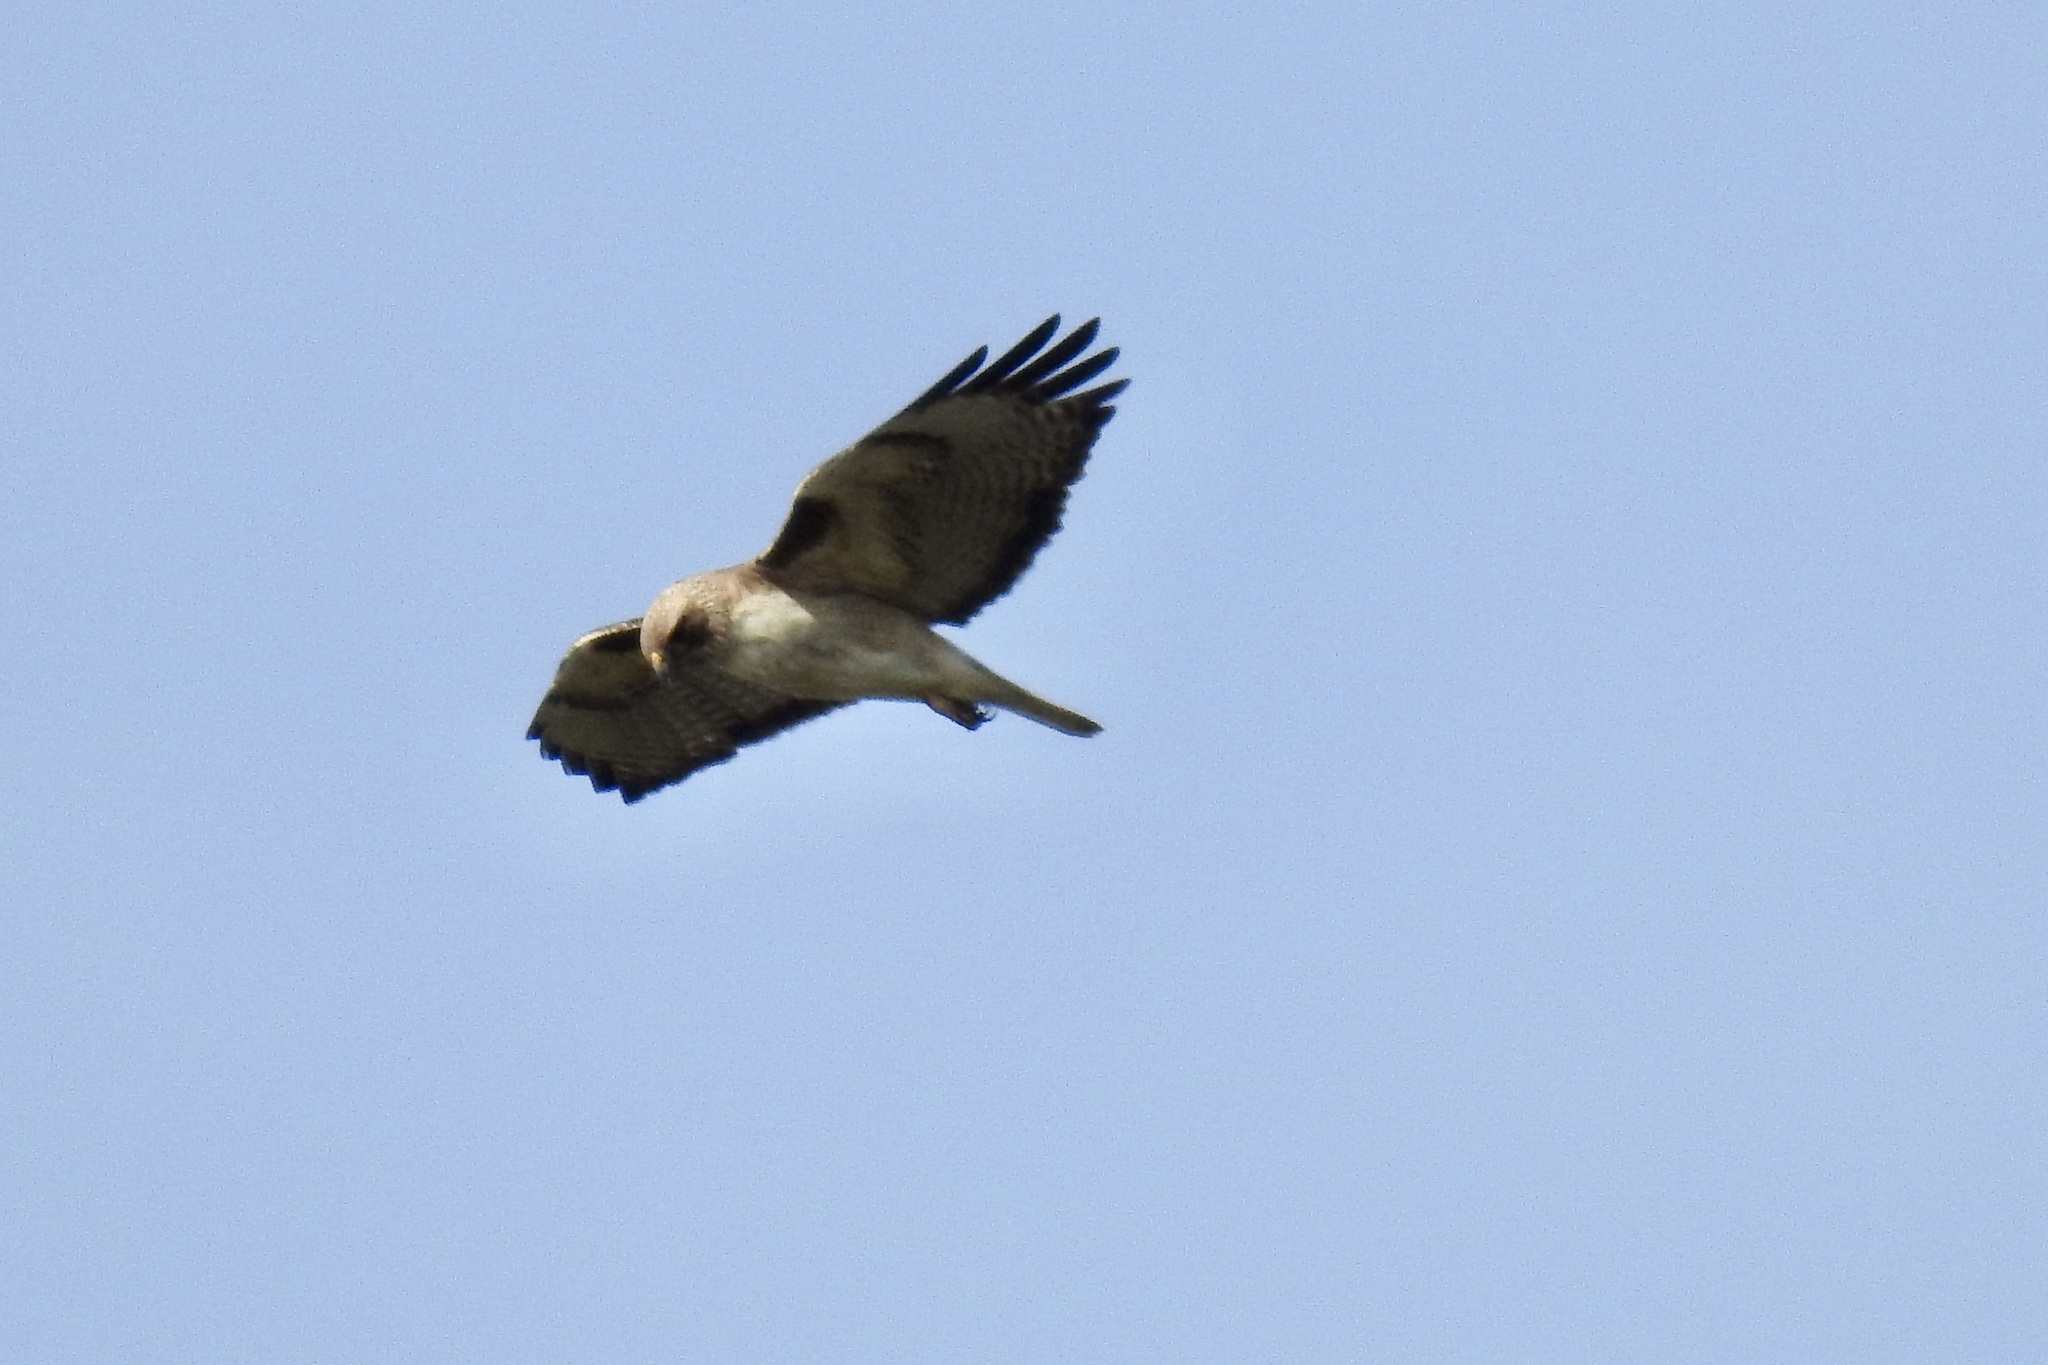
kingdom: Animalia
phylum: Chordata
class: Aves
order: Accipitriformes
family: Accipitridae
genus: Buteo
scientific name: Buteo jamaicensis
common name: Red-tailed hawk
